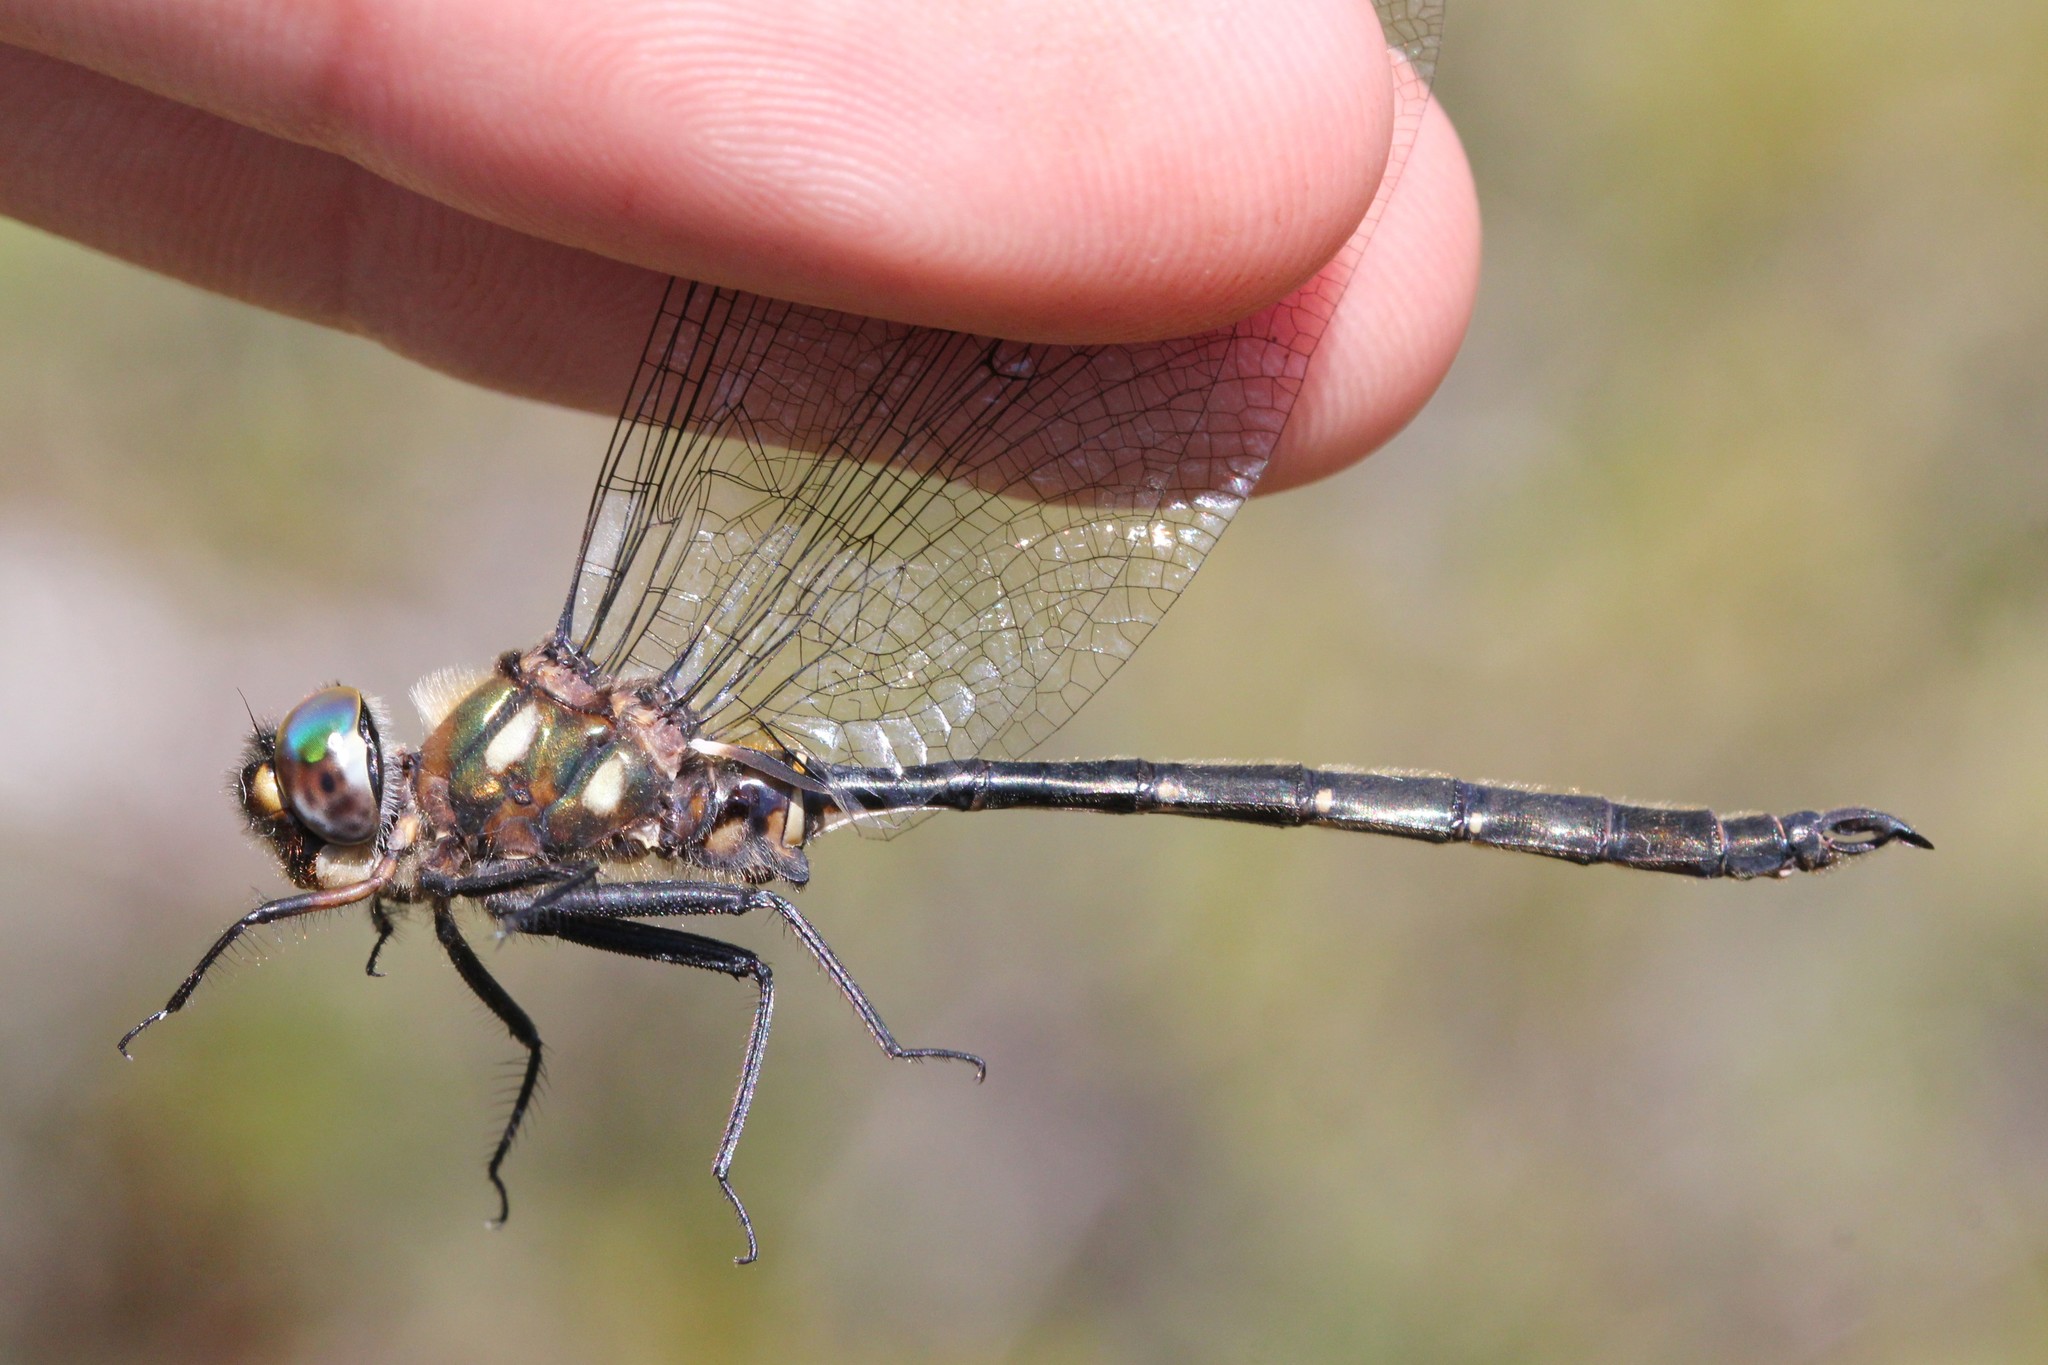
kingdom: Animalia
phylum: Arthropoda
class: Insecta
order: Odonata
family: Corduliidae
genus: Somatochlora
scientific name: Somatochlora forcipata
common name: Forcipate emerald
